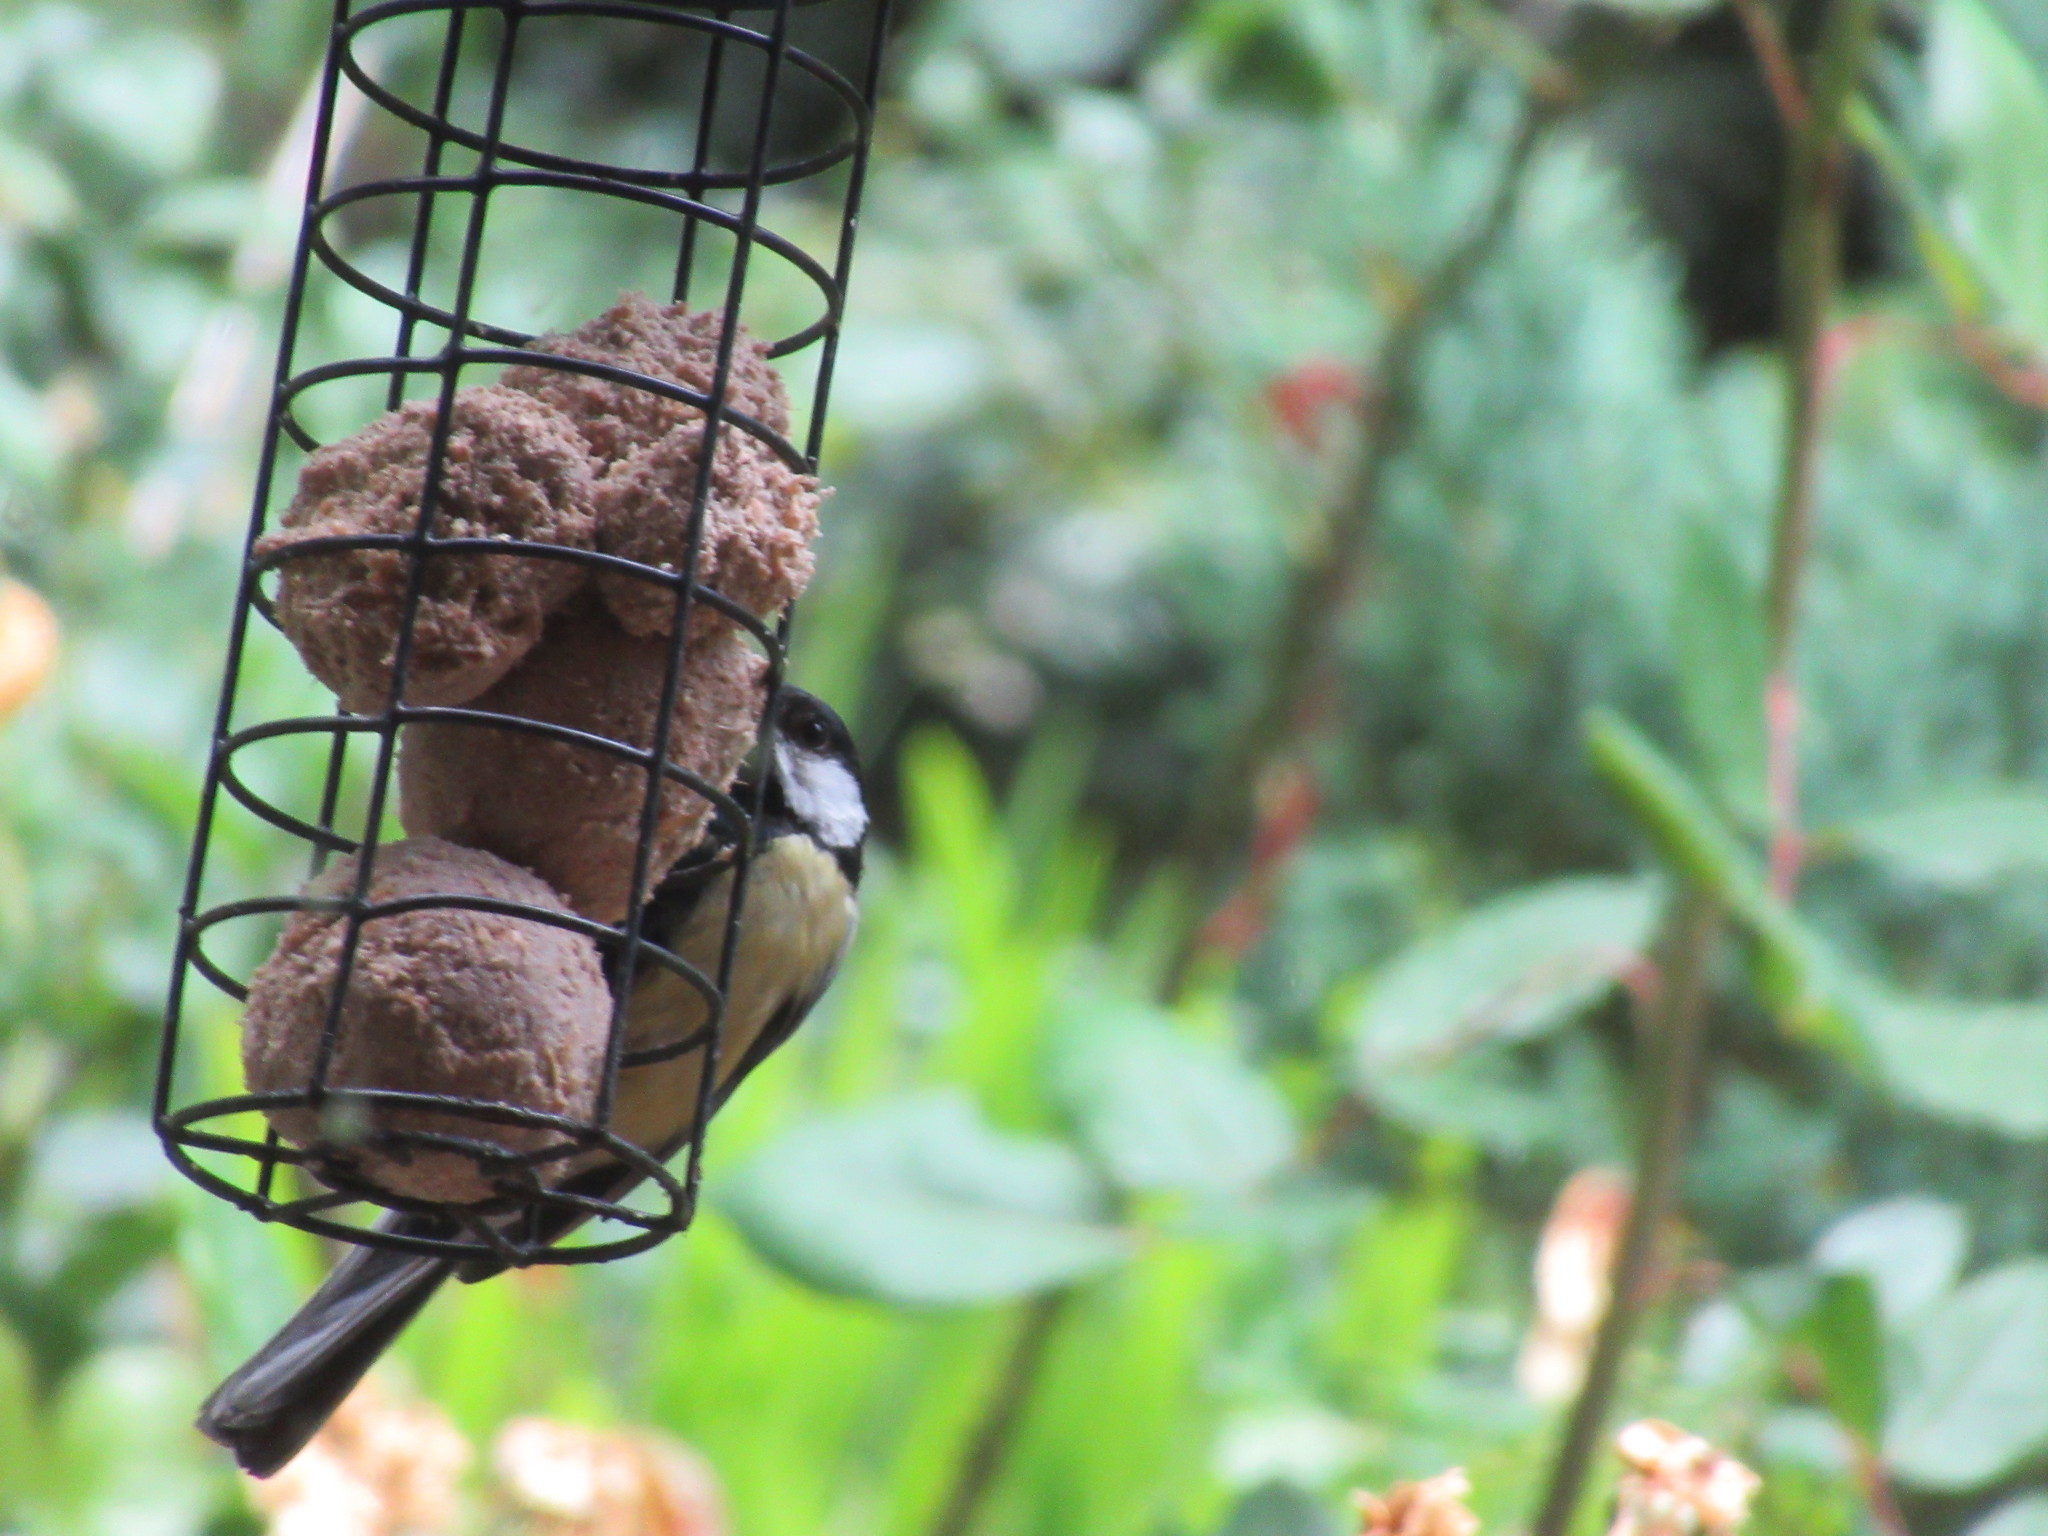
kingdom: Animalia
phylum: Chordata
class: Aves
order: Passeriformes
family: Paridae
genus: Parus
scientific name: Parus major
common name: Great tit
